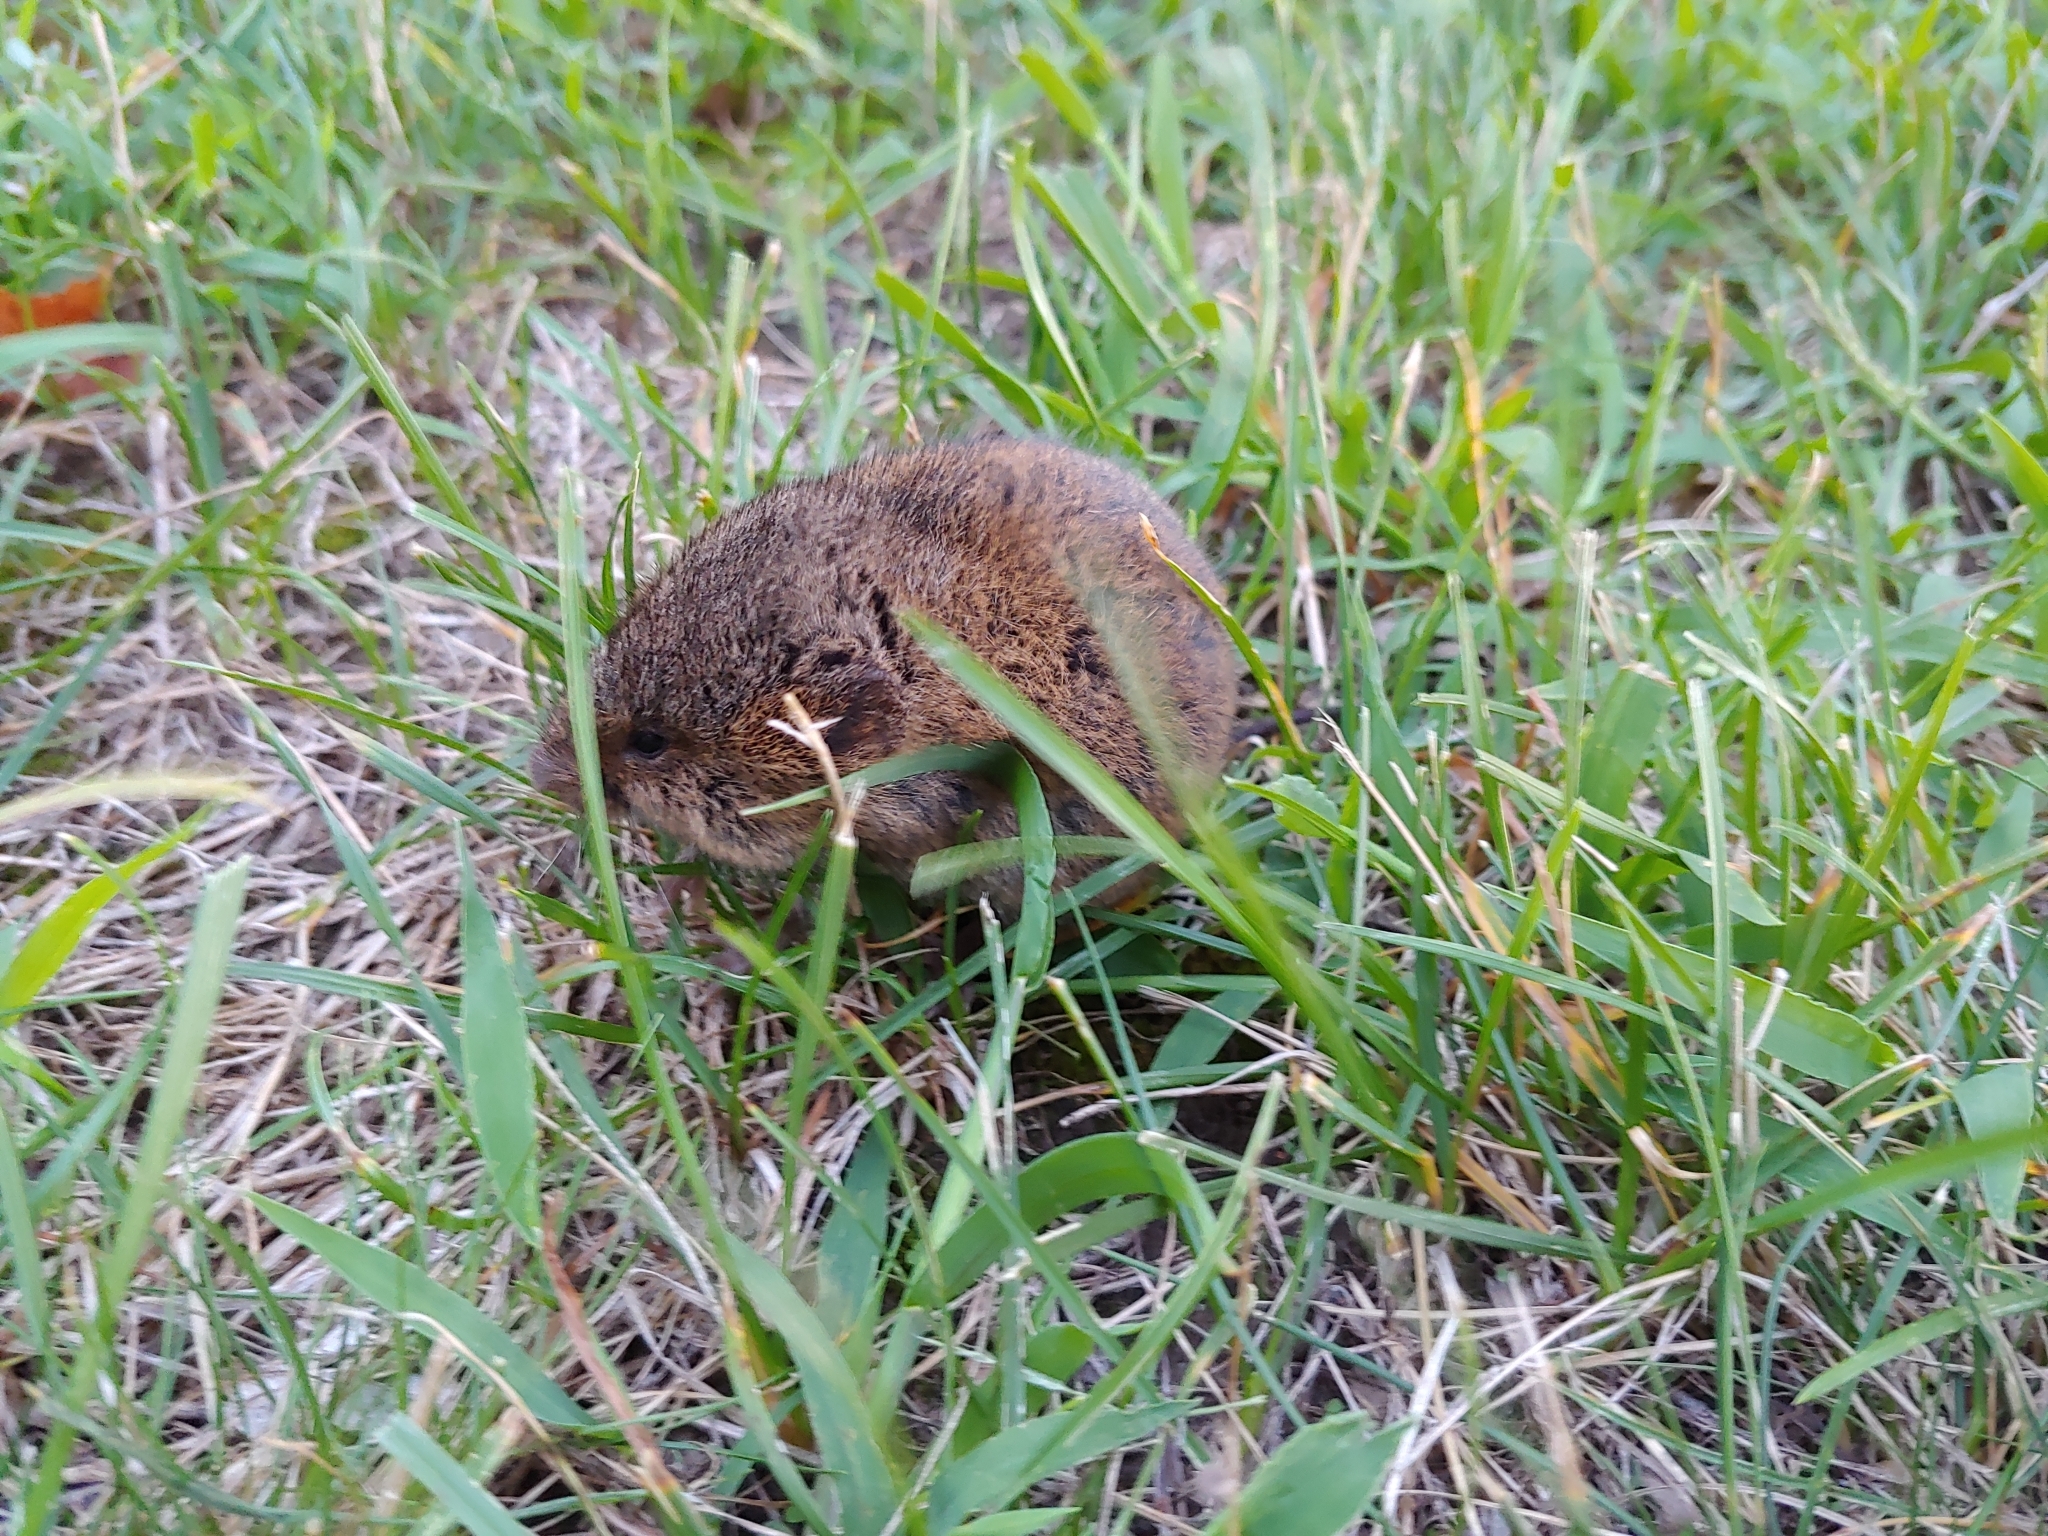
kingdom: Animalia
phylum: Chordata
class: Mammalia
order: Rodentia
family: Cricetidae
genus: Microtus
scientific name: Microtus pennsylvanicus
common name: Meadow vole
